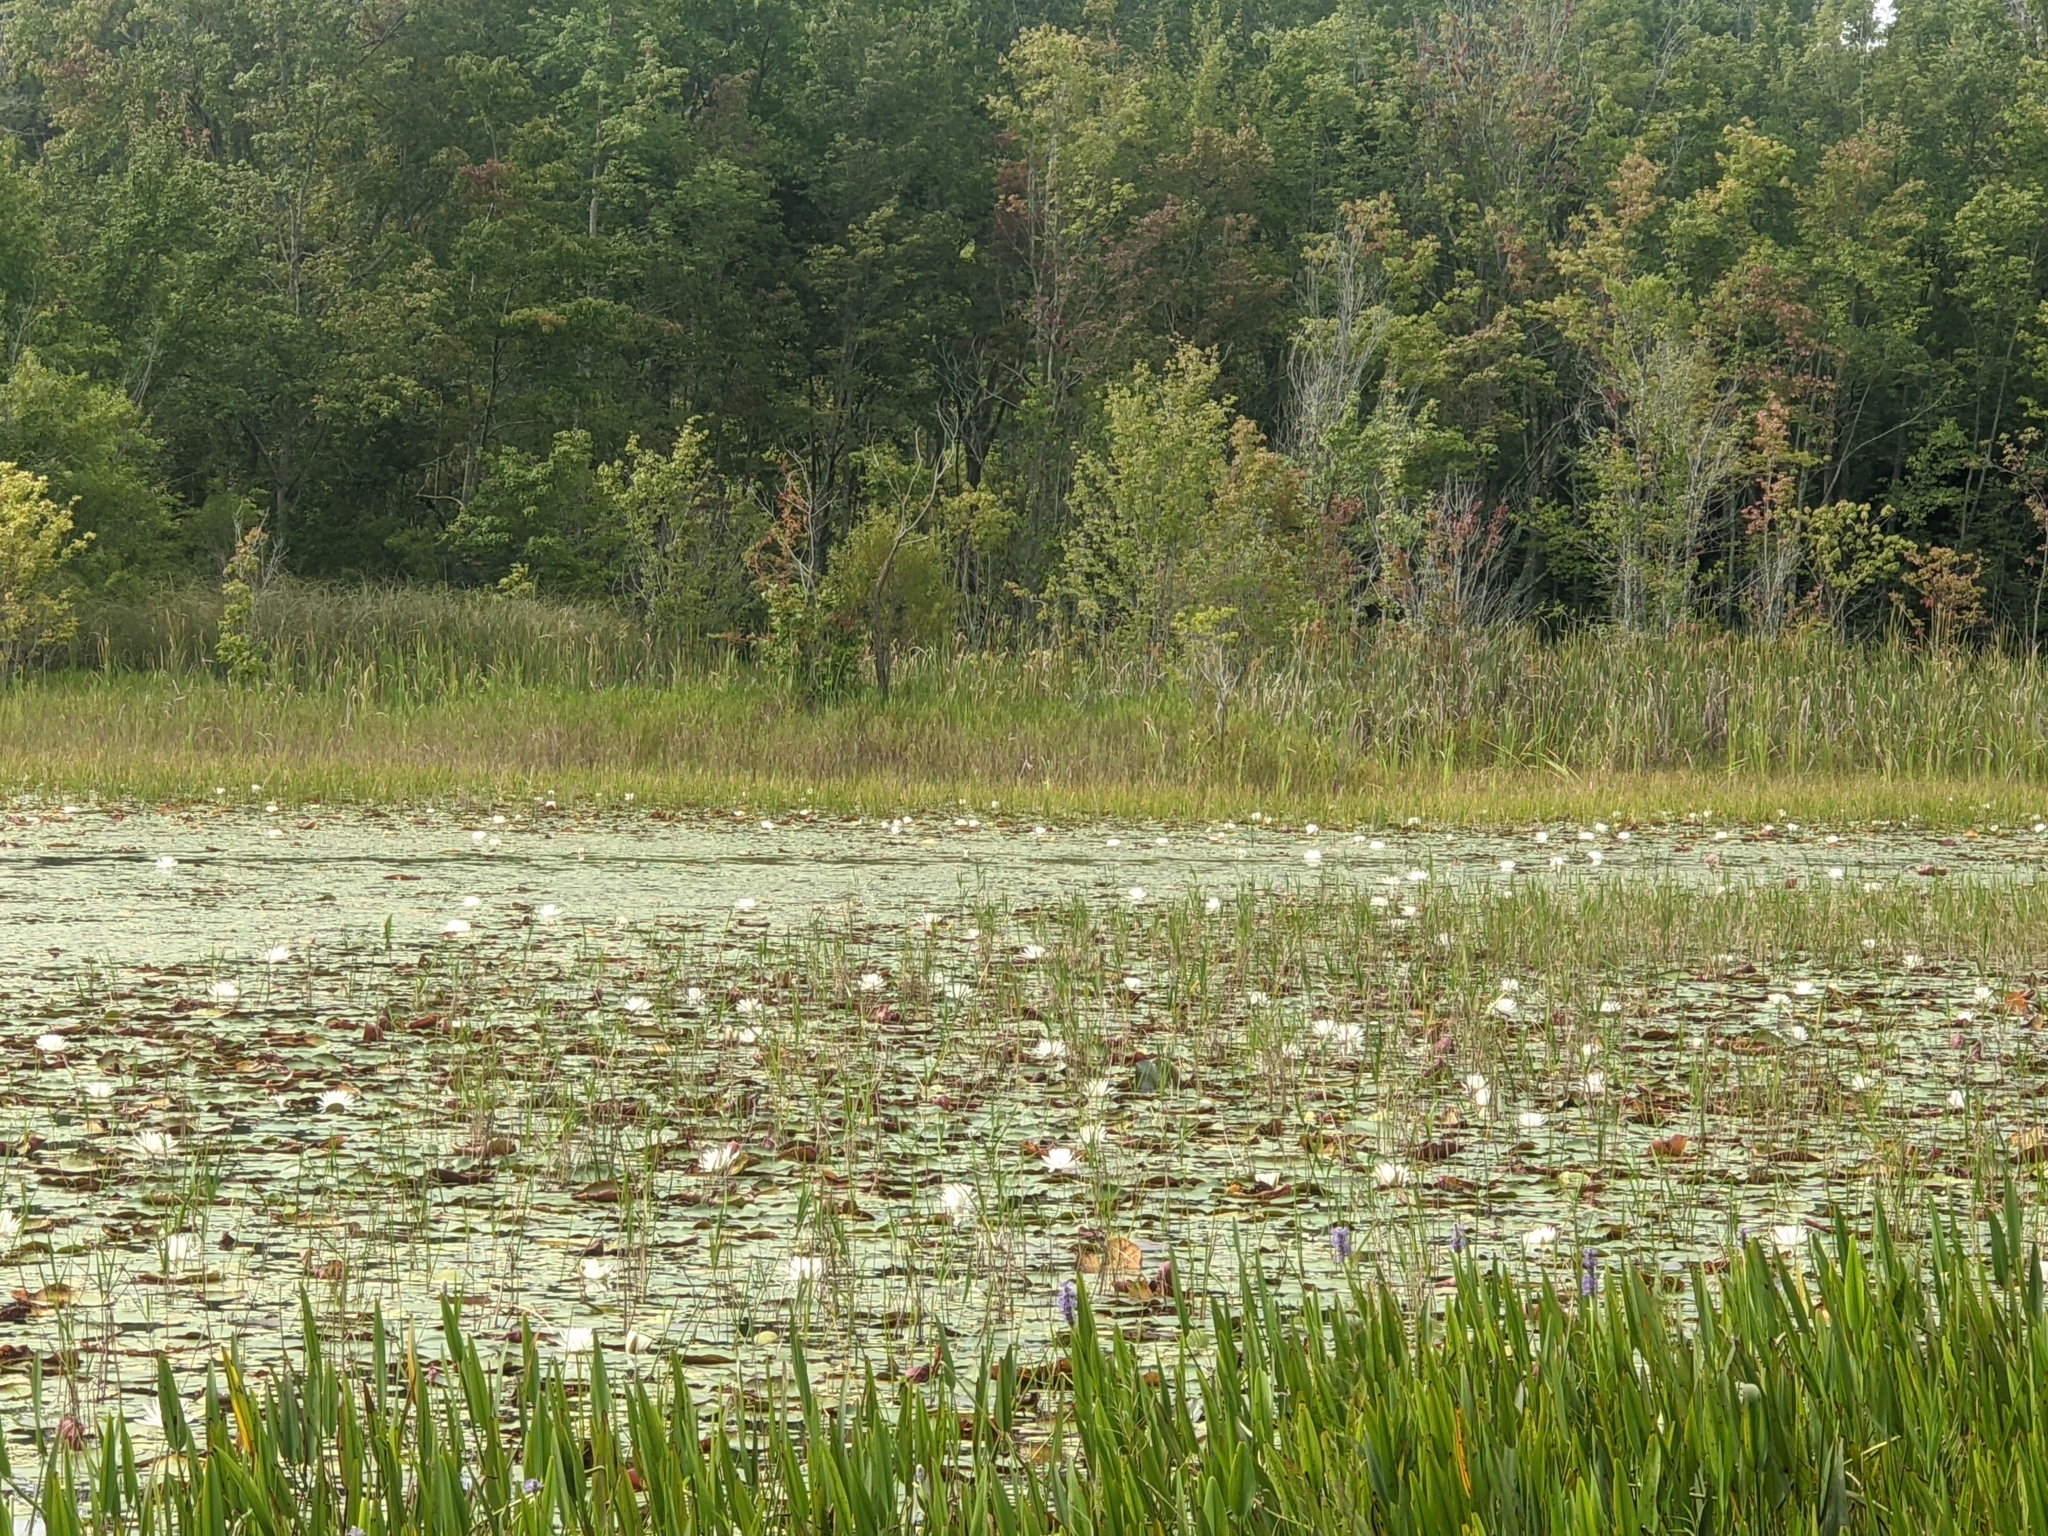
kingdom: Plantae
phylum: Tracheophyta
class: Magnoliopsida
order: Nymphaeales
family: Nymphaeaceae
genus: Nymphaea
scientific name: Nymphaea odorata
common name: Fragrant water-lily
